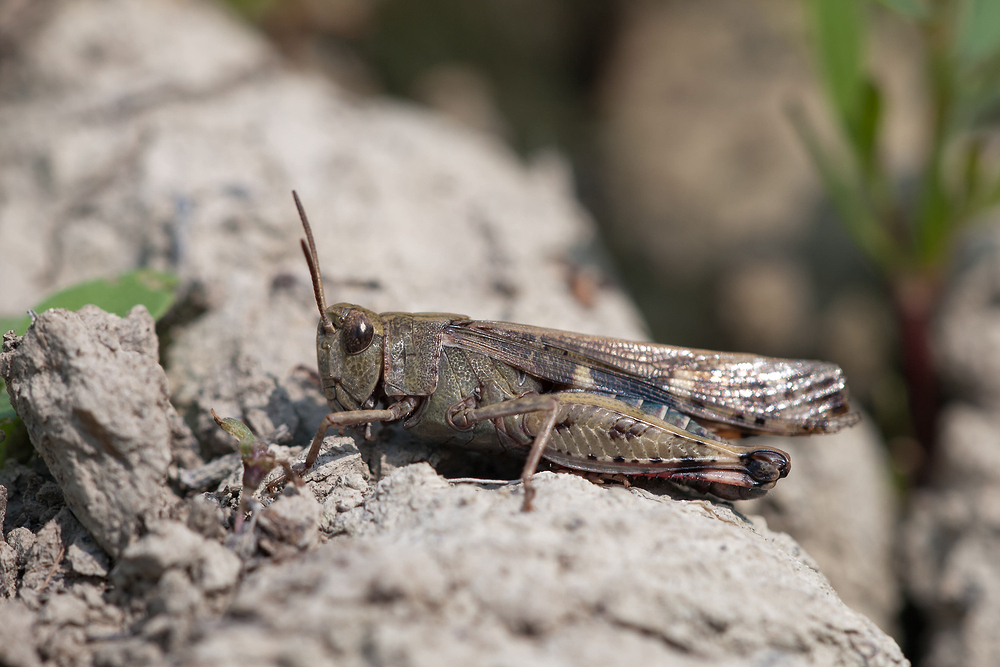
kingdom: Animalia
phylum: Arthropoda
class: Insecta
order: Orthoptera
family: Acrididae
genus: Aiolopus
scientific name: Aiolopus strepens
